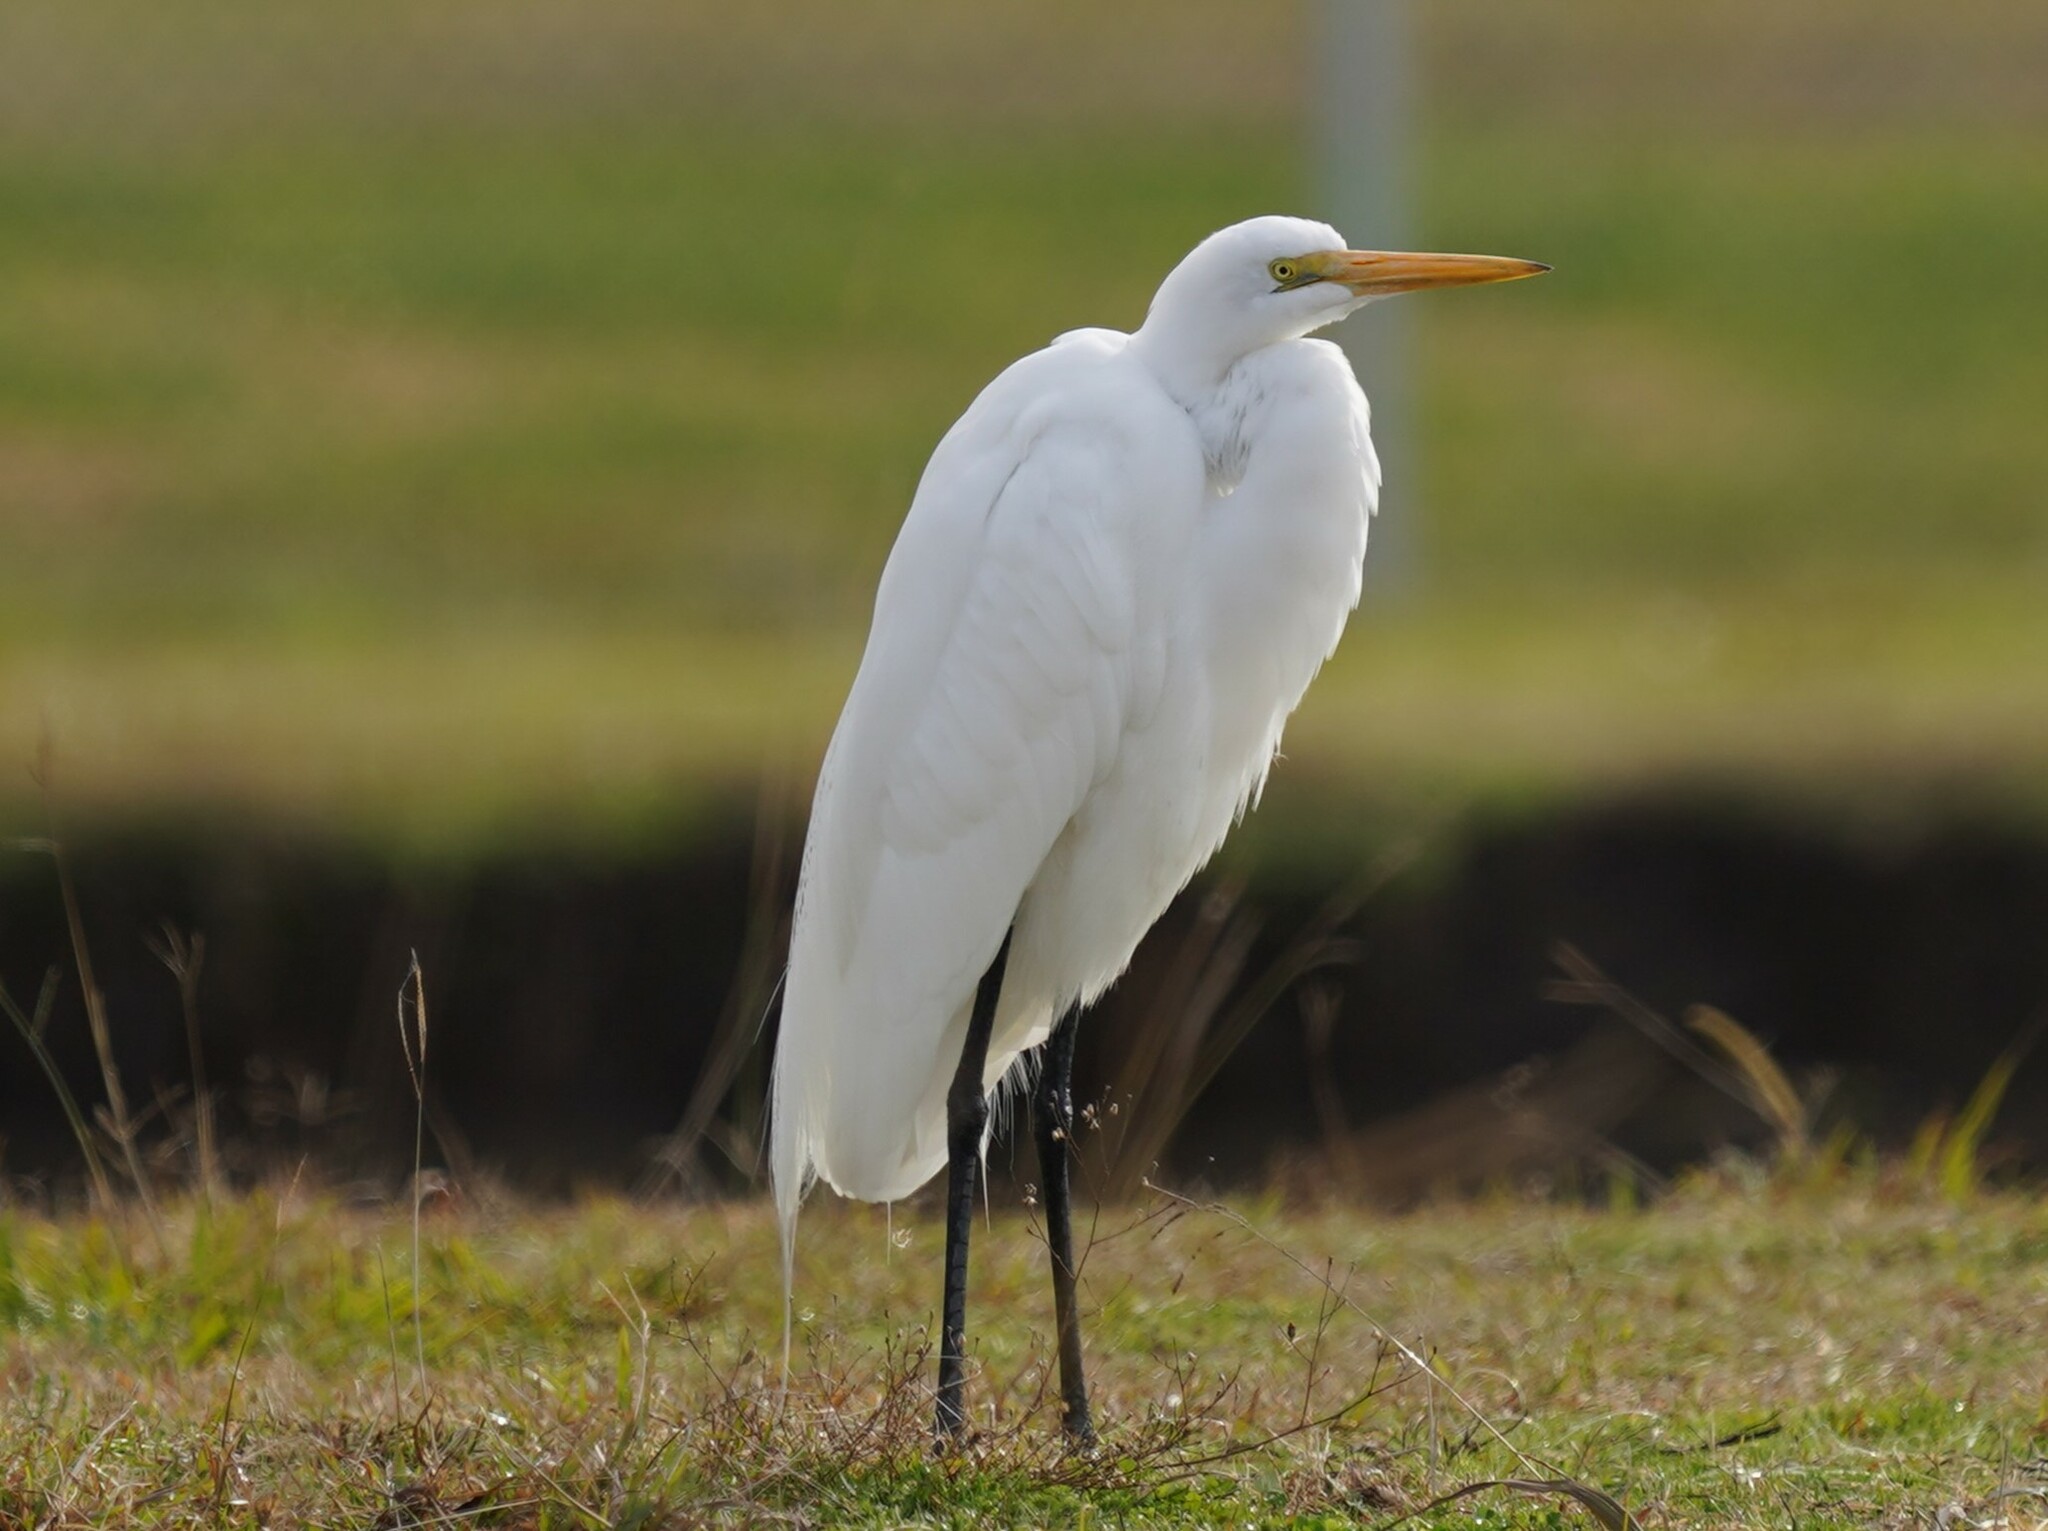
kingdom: Animalia
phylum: Chordata
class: Aves
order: Pelecaniformes
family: Ardeidae
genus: Ardea
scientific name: Ardea alba
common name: Great egret
